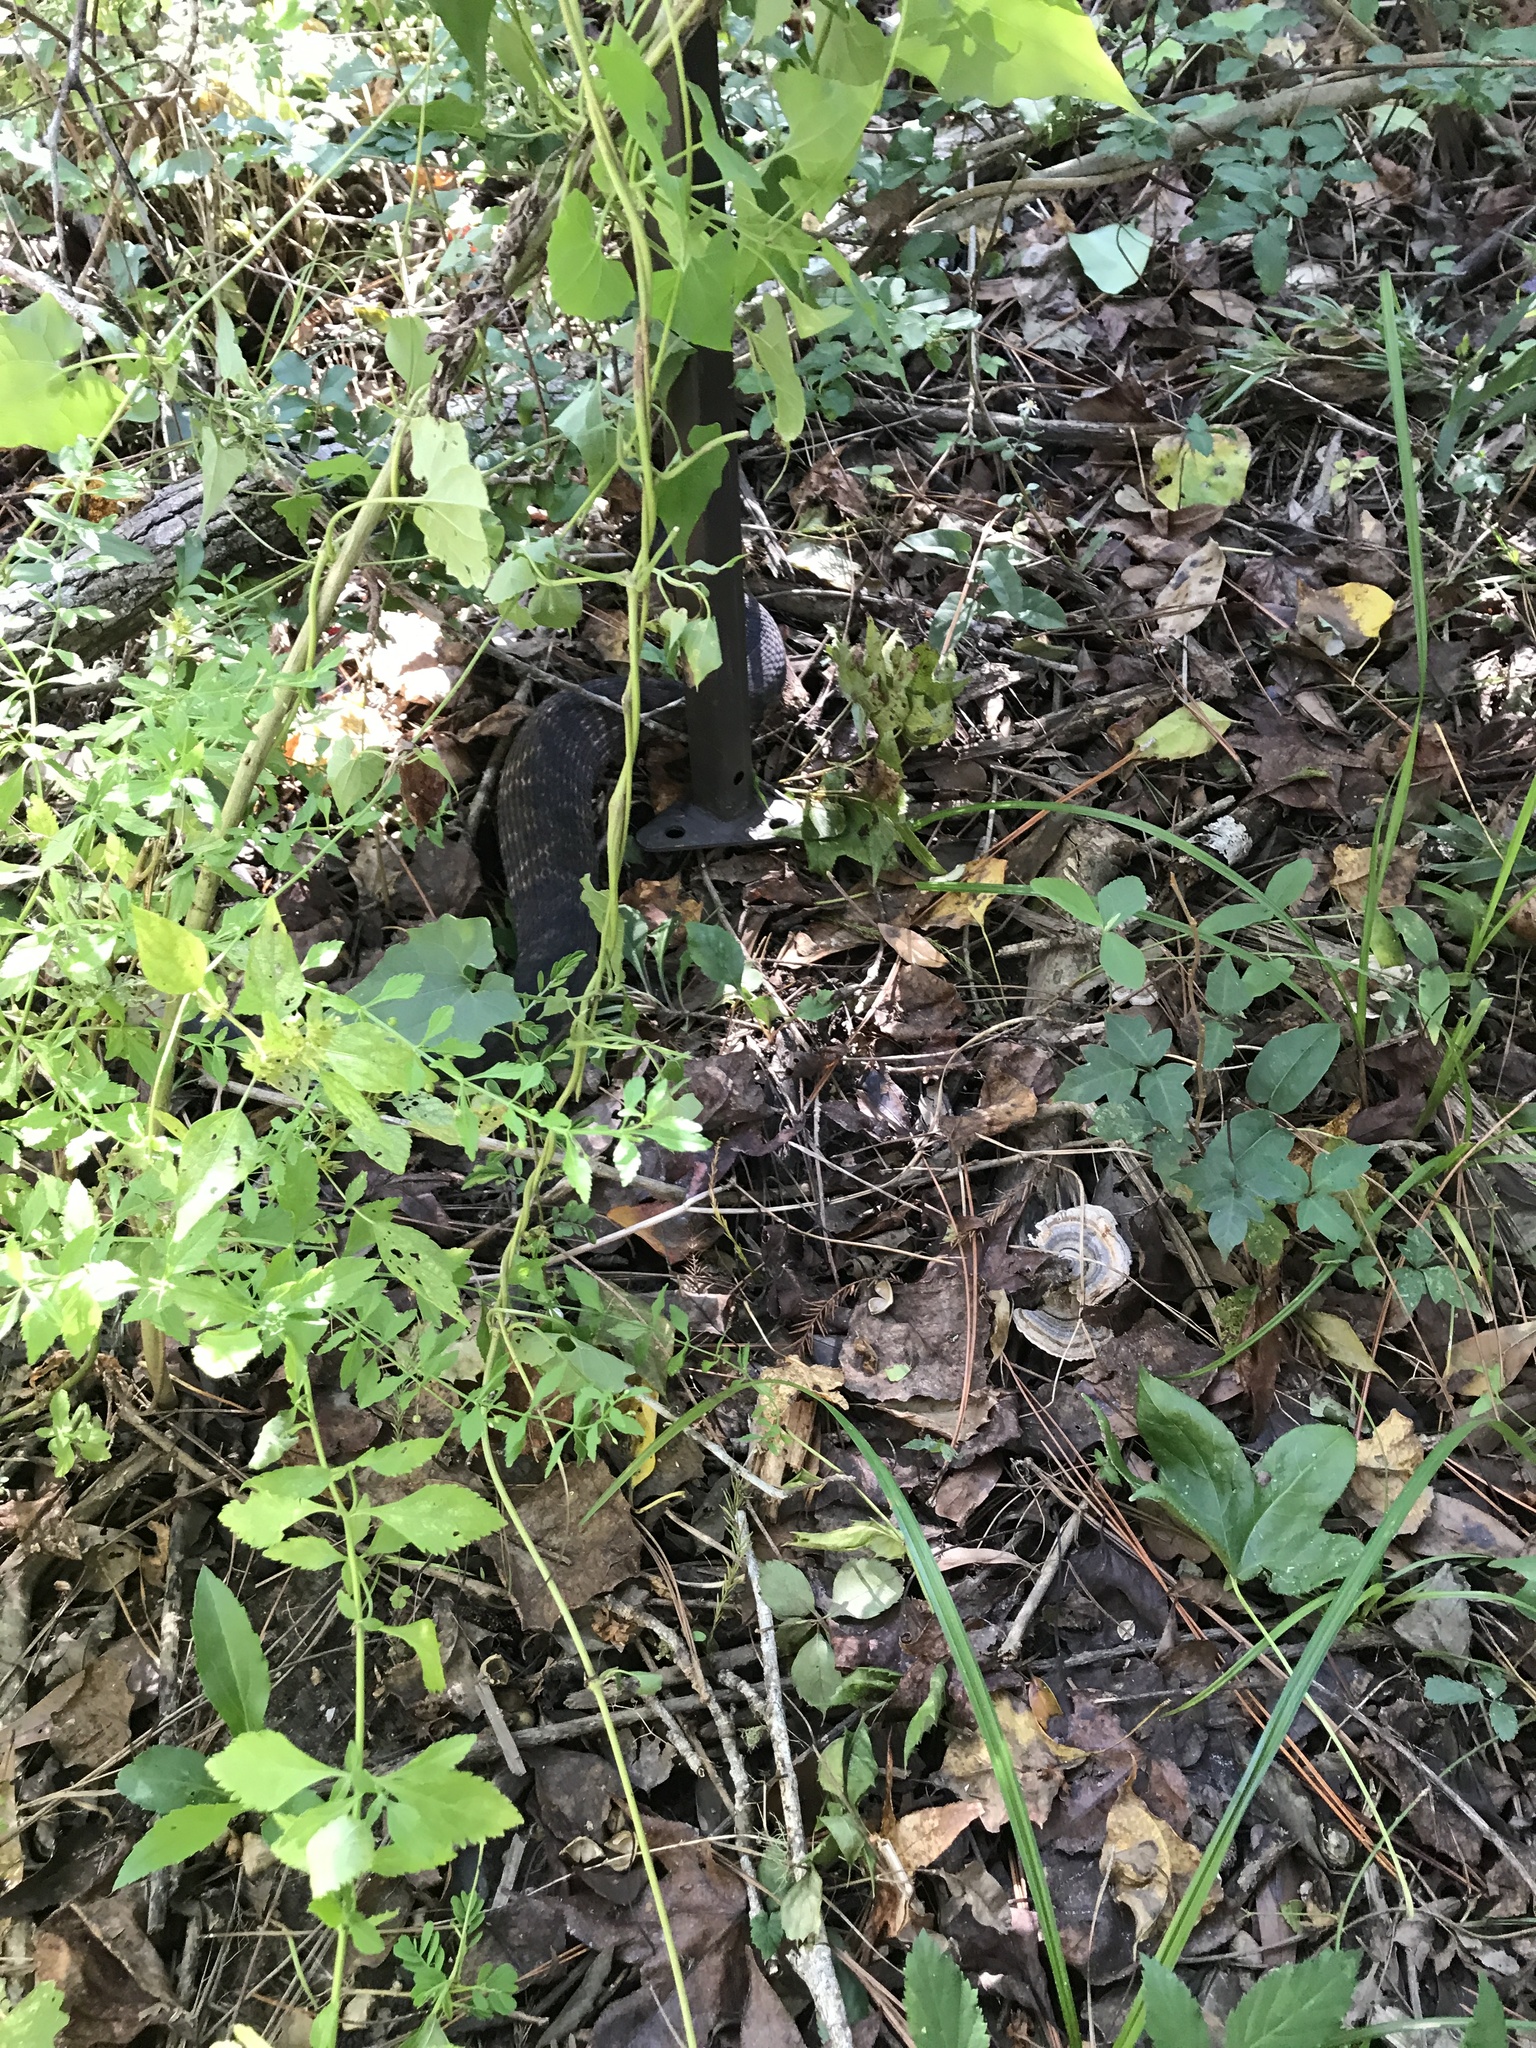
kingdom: Animalia
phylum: Chordata
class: Squamata
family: Viperidae
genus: Agkistrodon
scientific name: Agkistrodon piscivorus
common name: Cottonmouth
